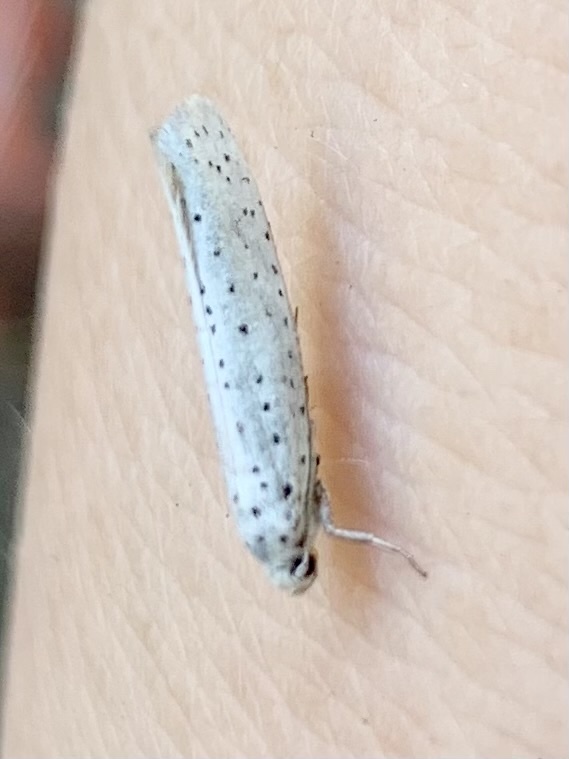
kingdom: Animalia
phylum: Arthropoda
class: Insecta
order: Lepidoptera
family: Yponomeutidae
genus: Yponomeuta
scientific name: Yponomeuta evonymella
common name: Bird-cherry ermine
